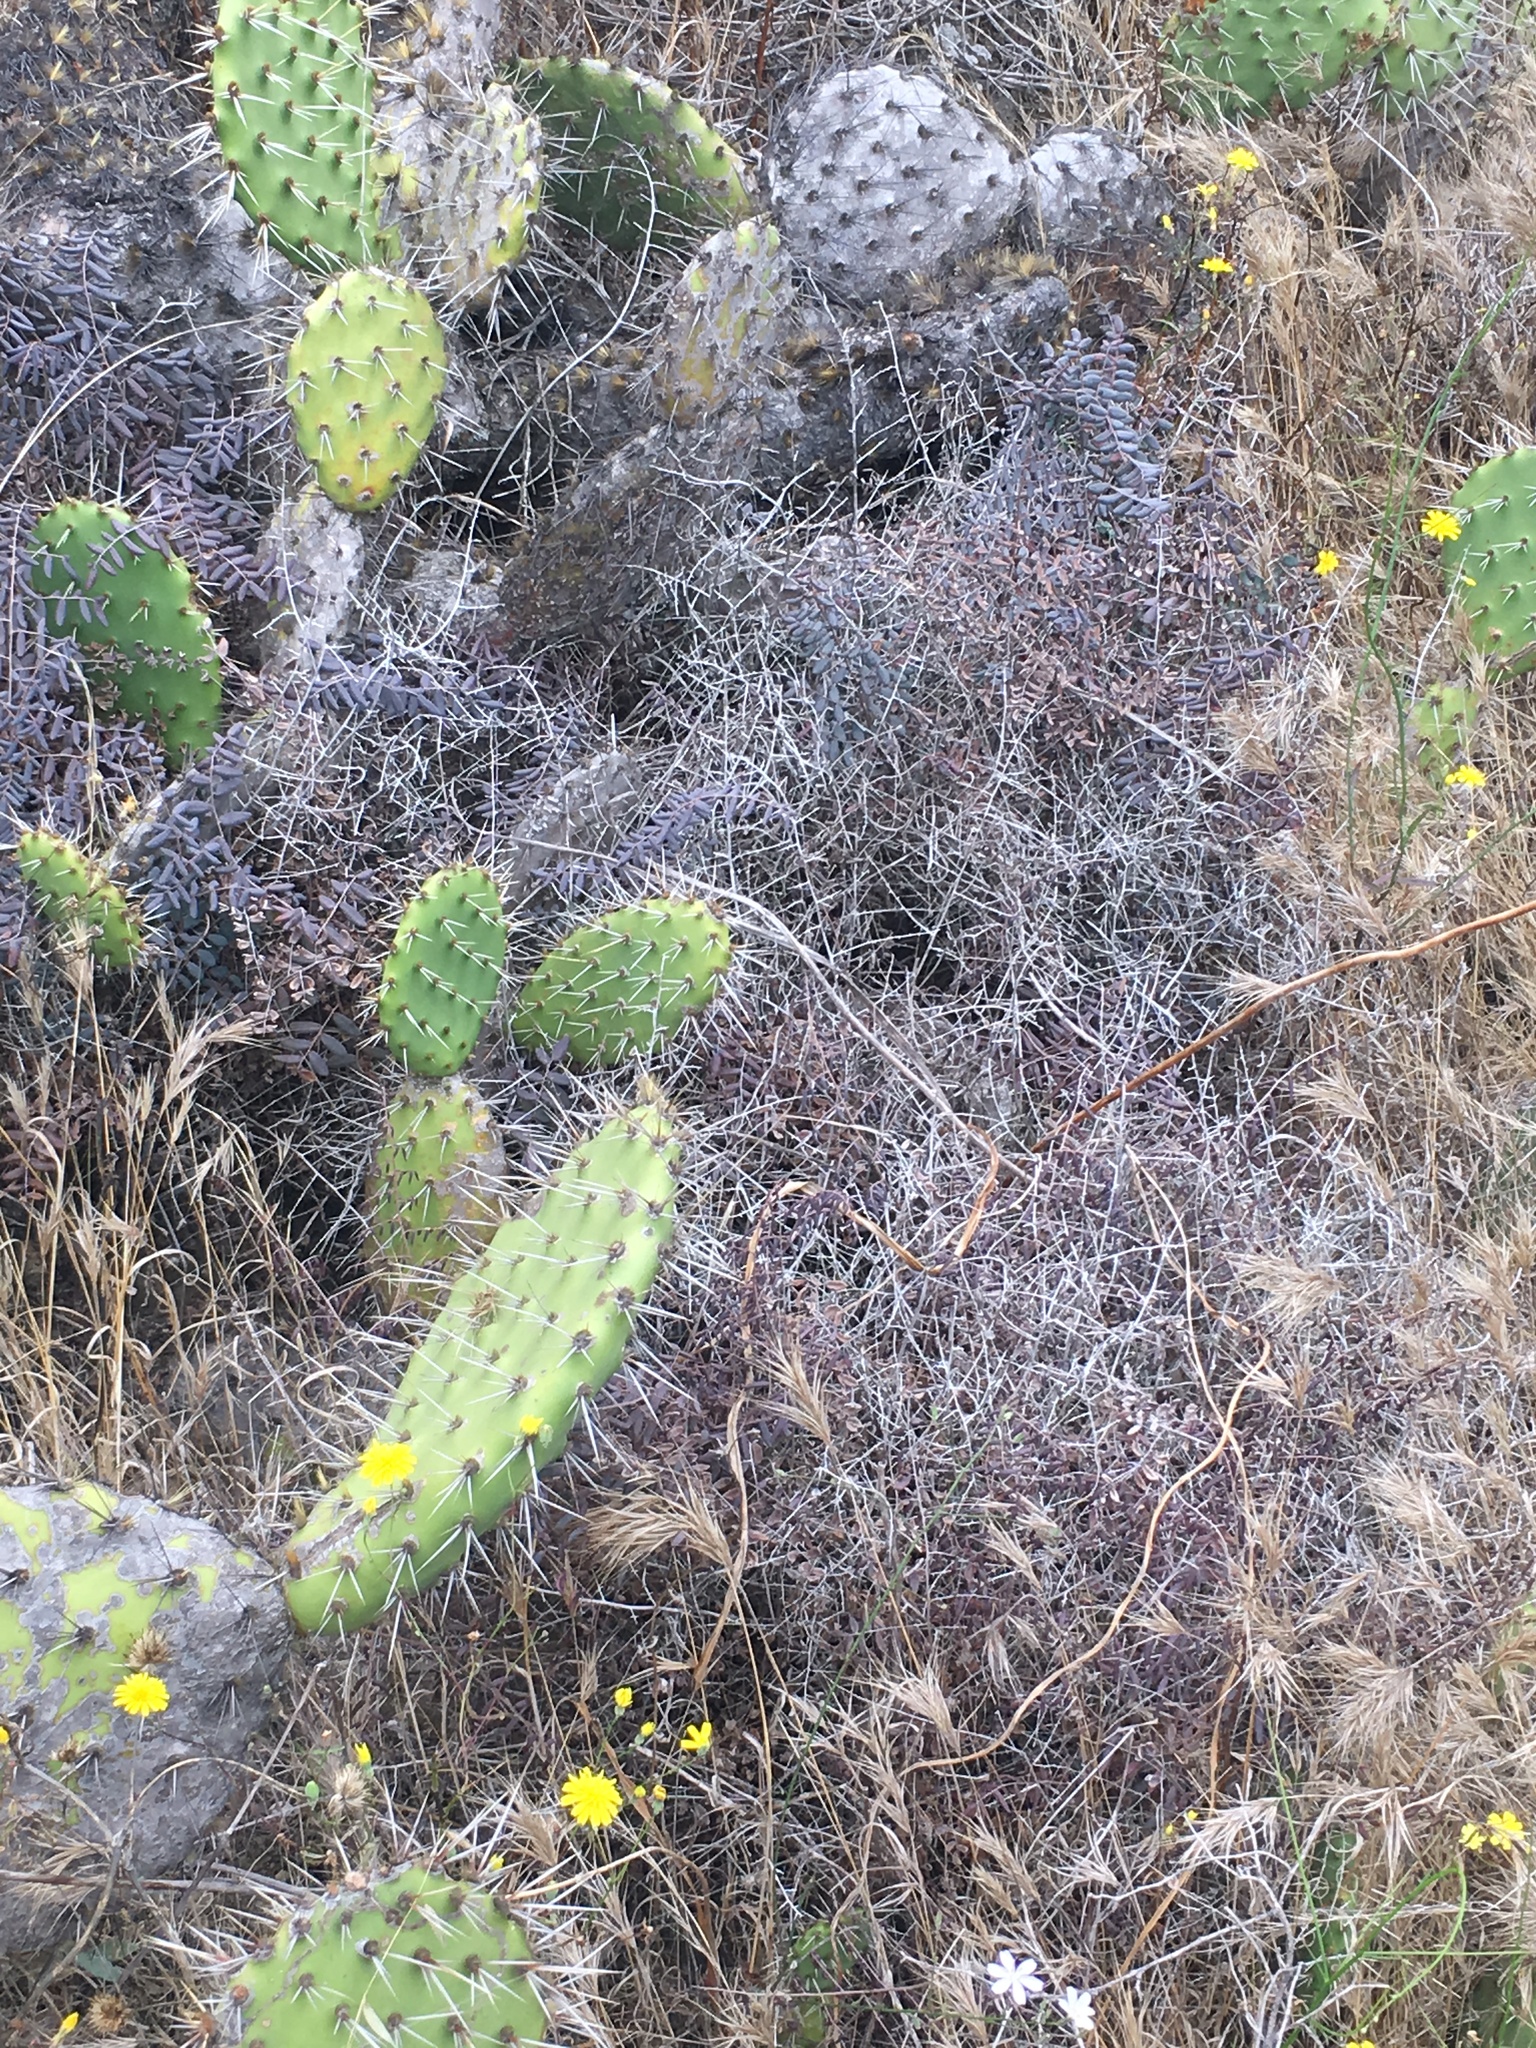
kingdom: Plantae
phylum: Tracheophyta
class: Polypodiopsida
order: Polypodiales
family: Pteridaceae
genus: Pellaea
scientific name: Pellaea andromedifolia
